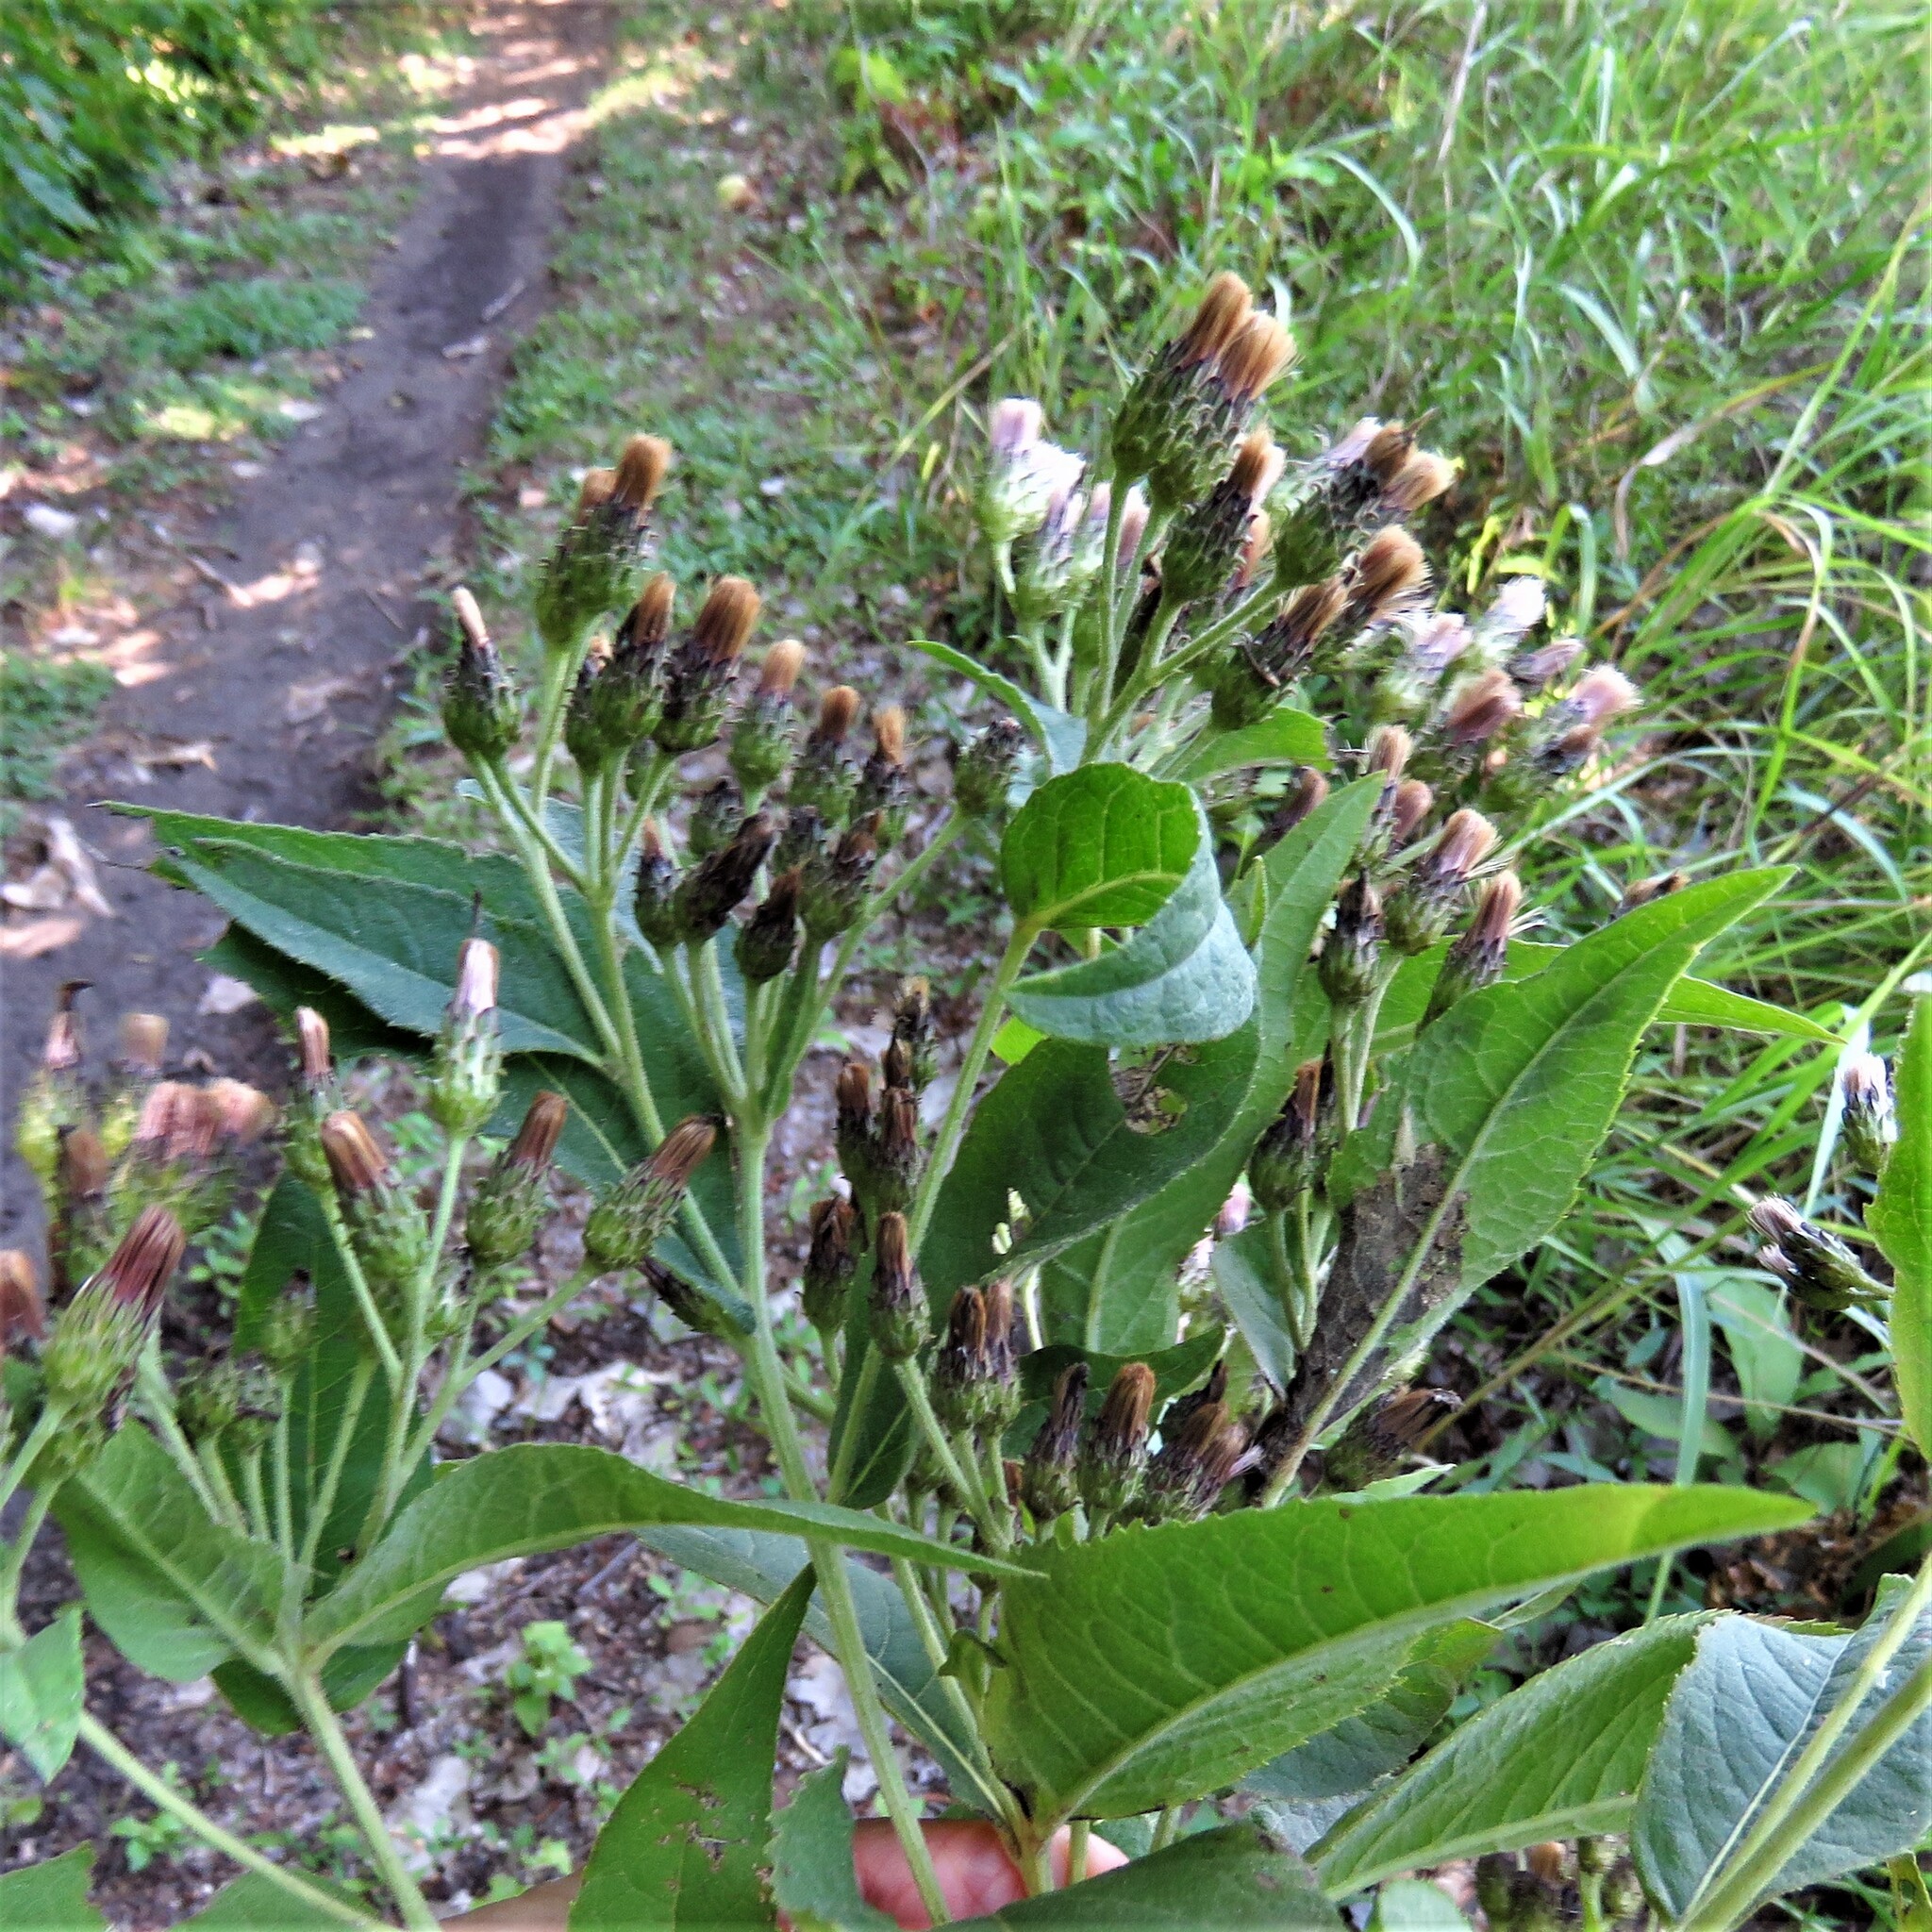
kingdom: Plantae
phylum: Tracheophyta
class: Magnoliopsida
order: Asterales
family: Asteraceae
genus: Vernonia
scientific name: Vernonia baldwinii
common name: Western ironweed
